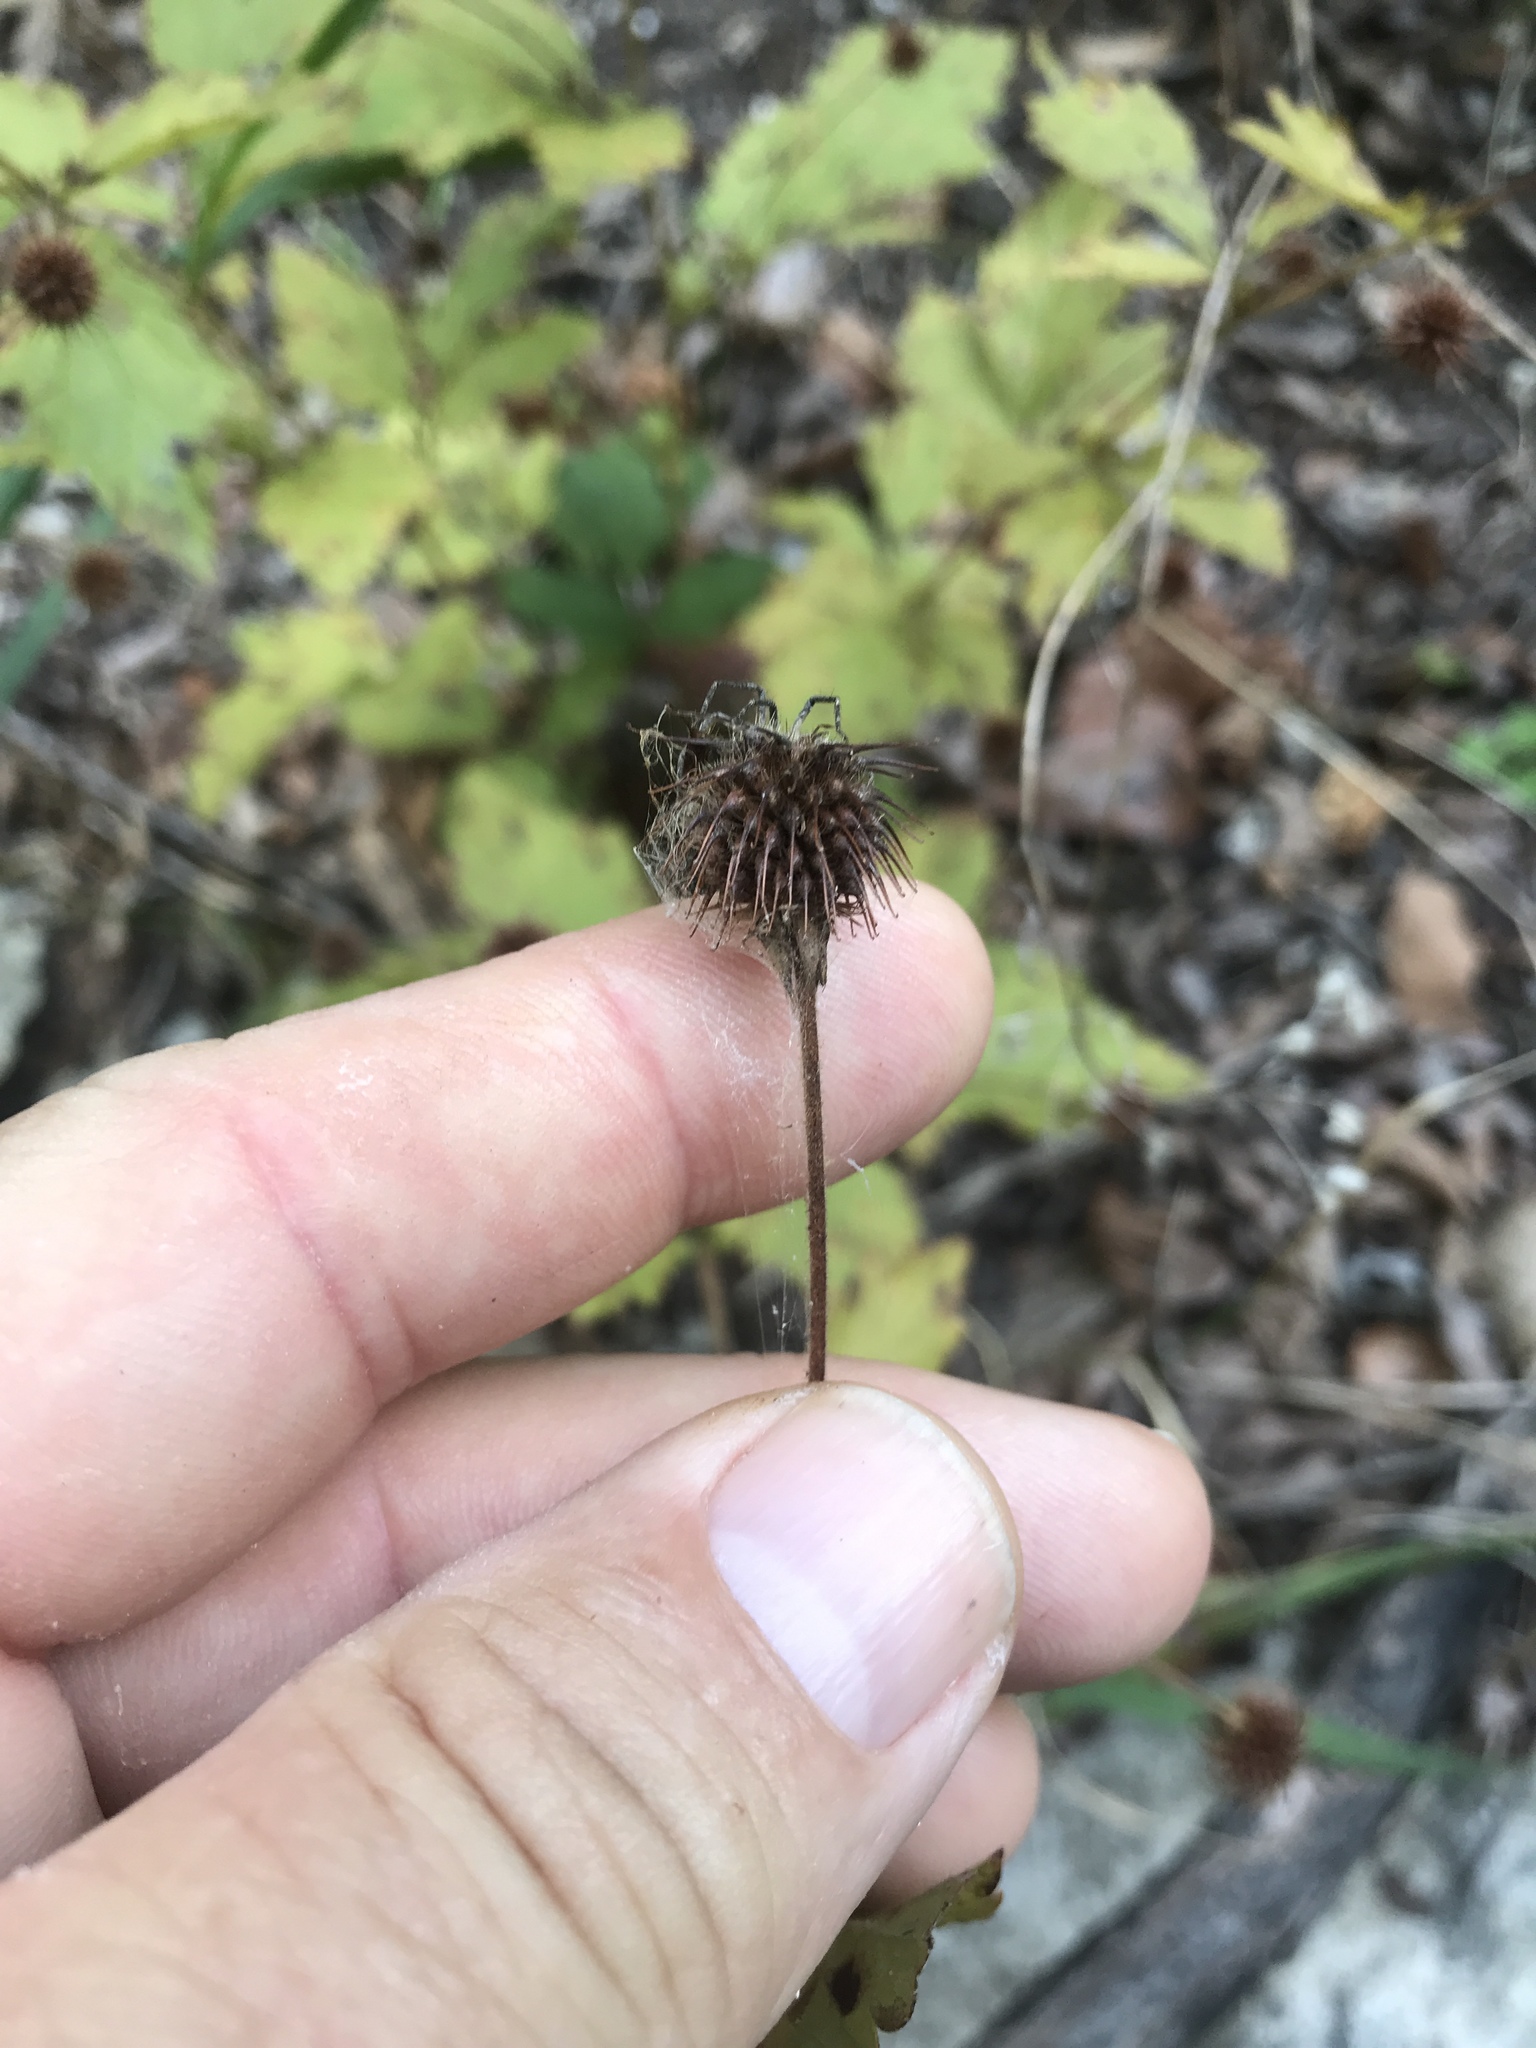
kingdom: Plantae
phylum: Tracheophyta
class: Magnoliopsida
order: Rosales
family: Rosaceae
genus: Geum
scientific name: Geum canadense
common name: White avens
